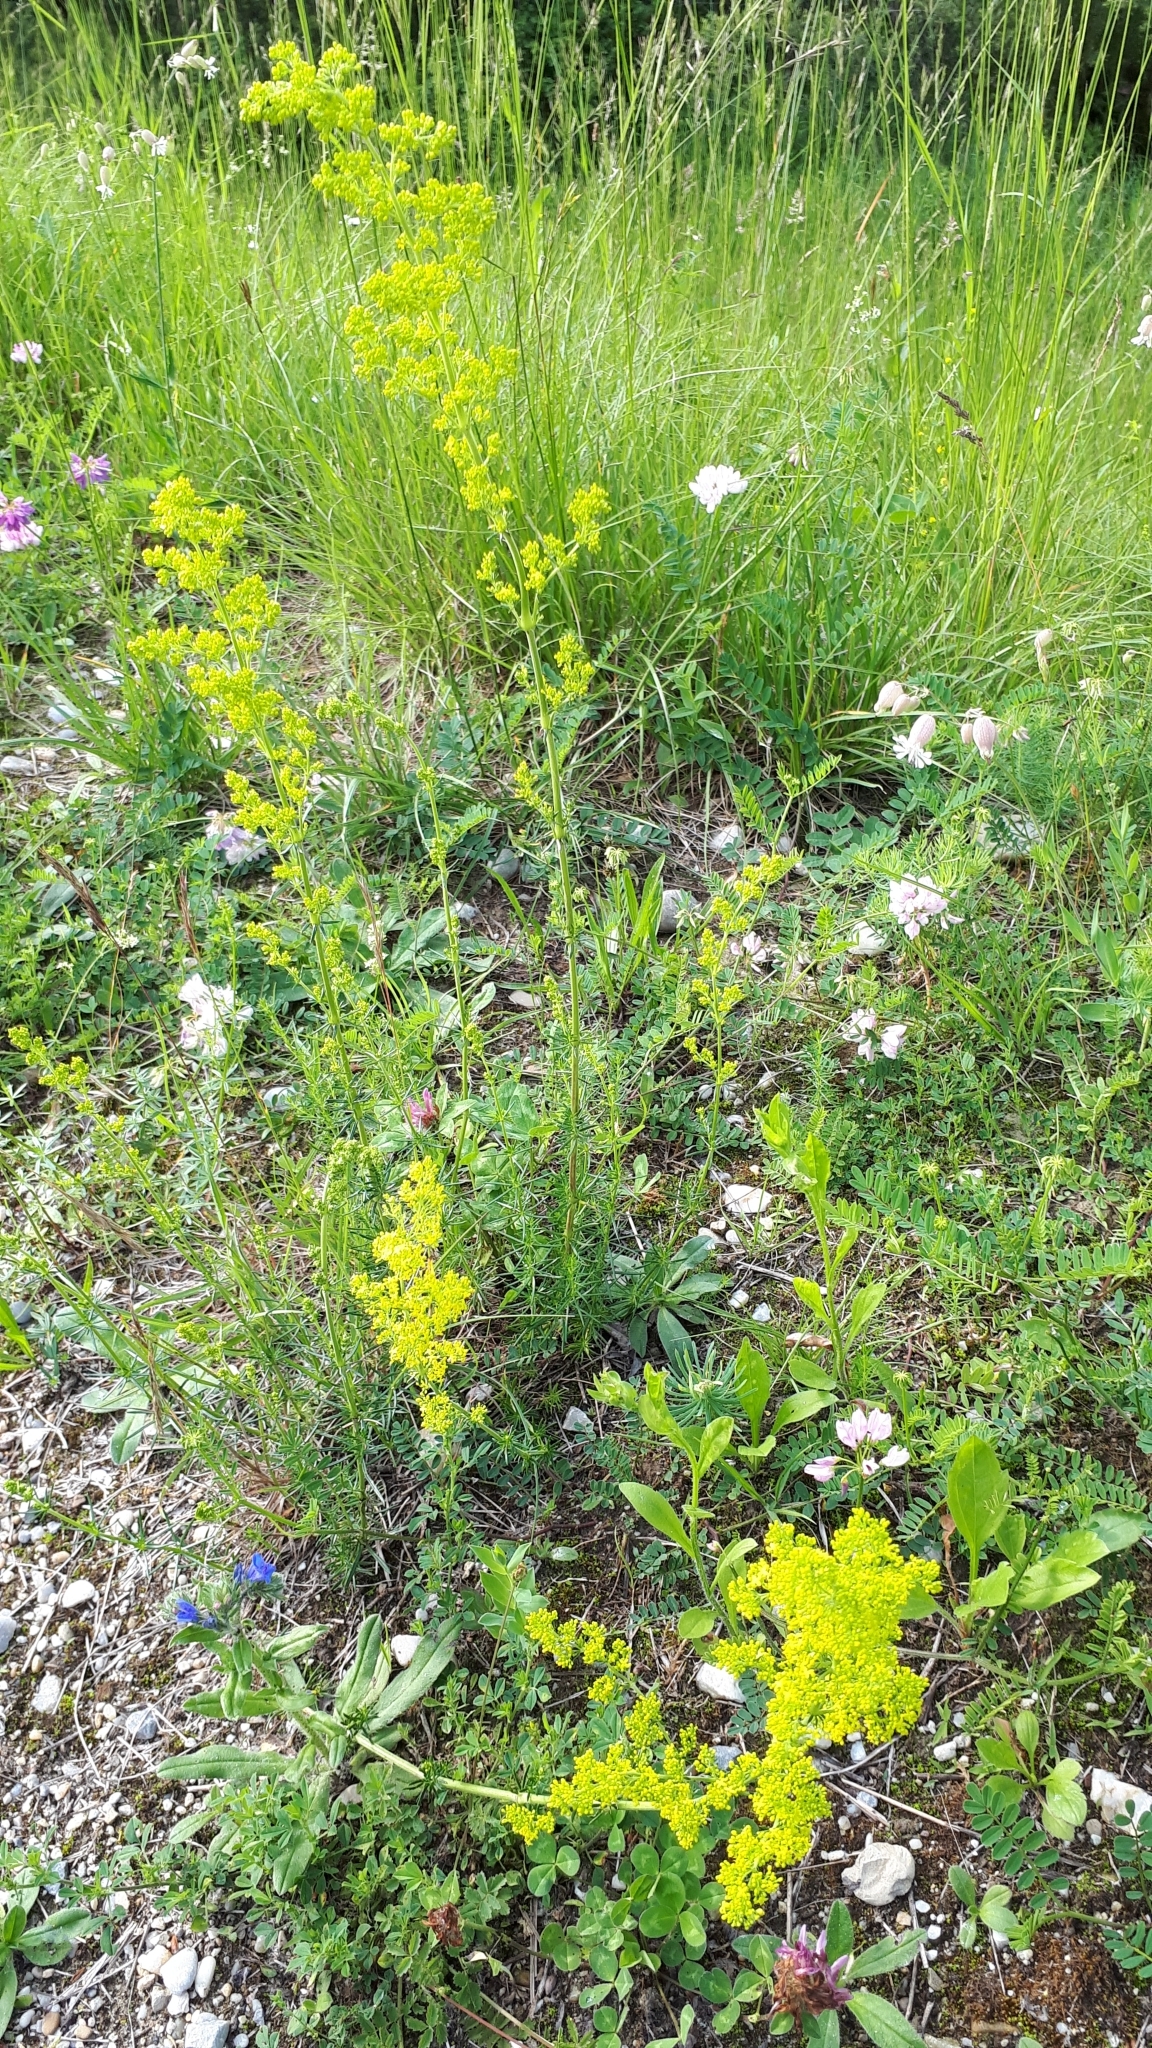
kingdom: Plantae
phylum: Tracheophyta
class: Magnoliopsida
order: Gentianales
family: Rubiaceae
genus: Galium
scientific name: Galium verum
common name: Lady's bedstraw
